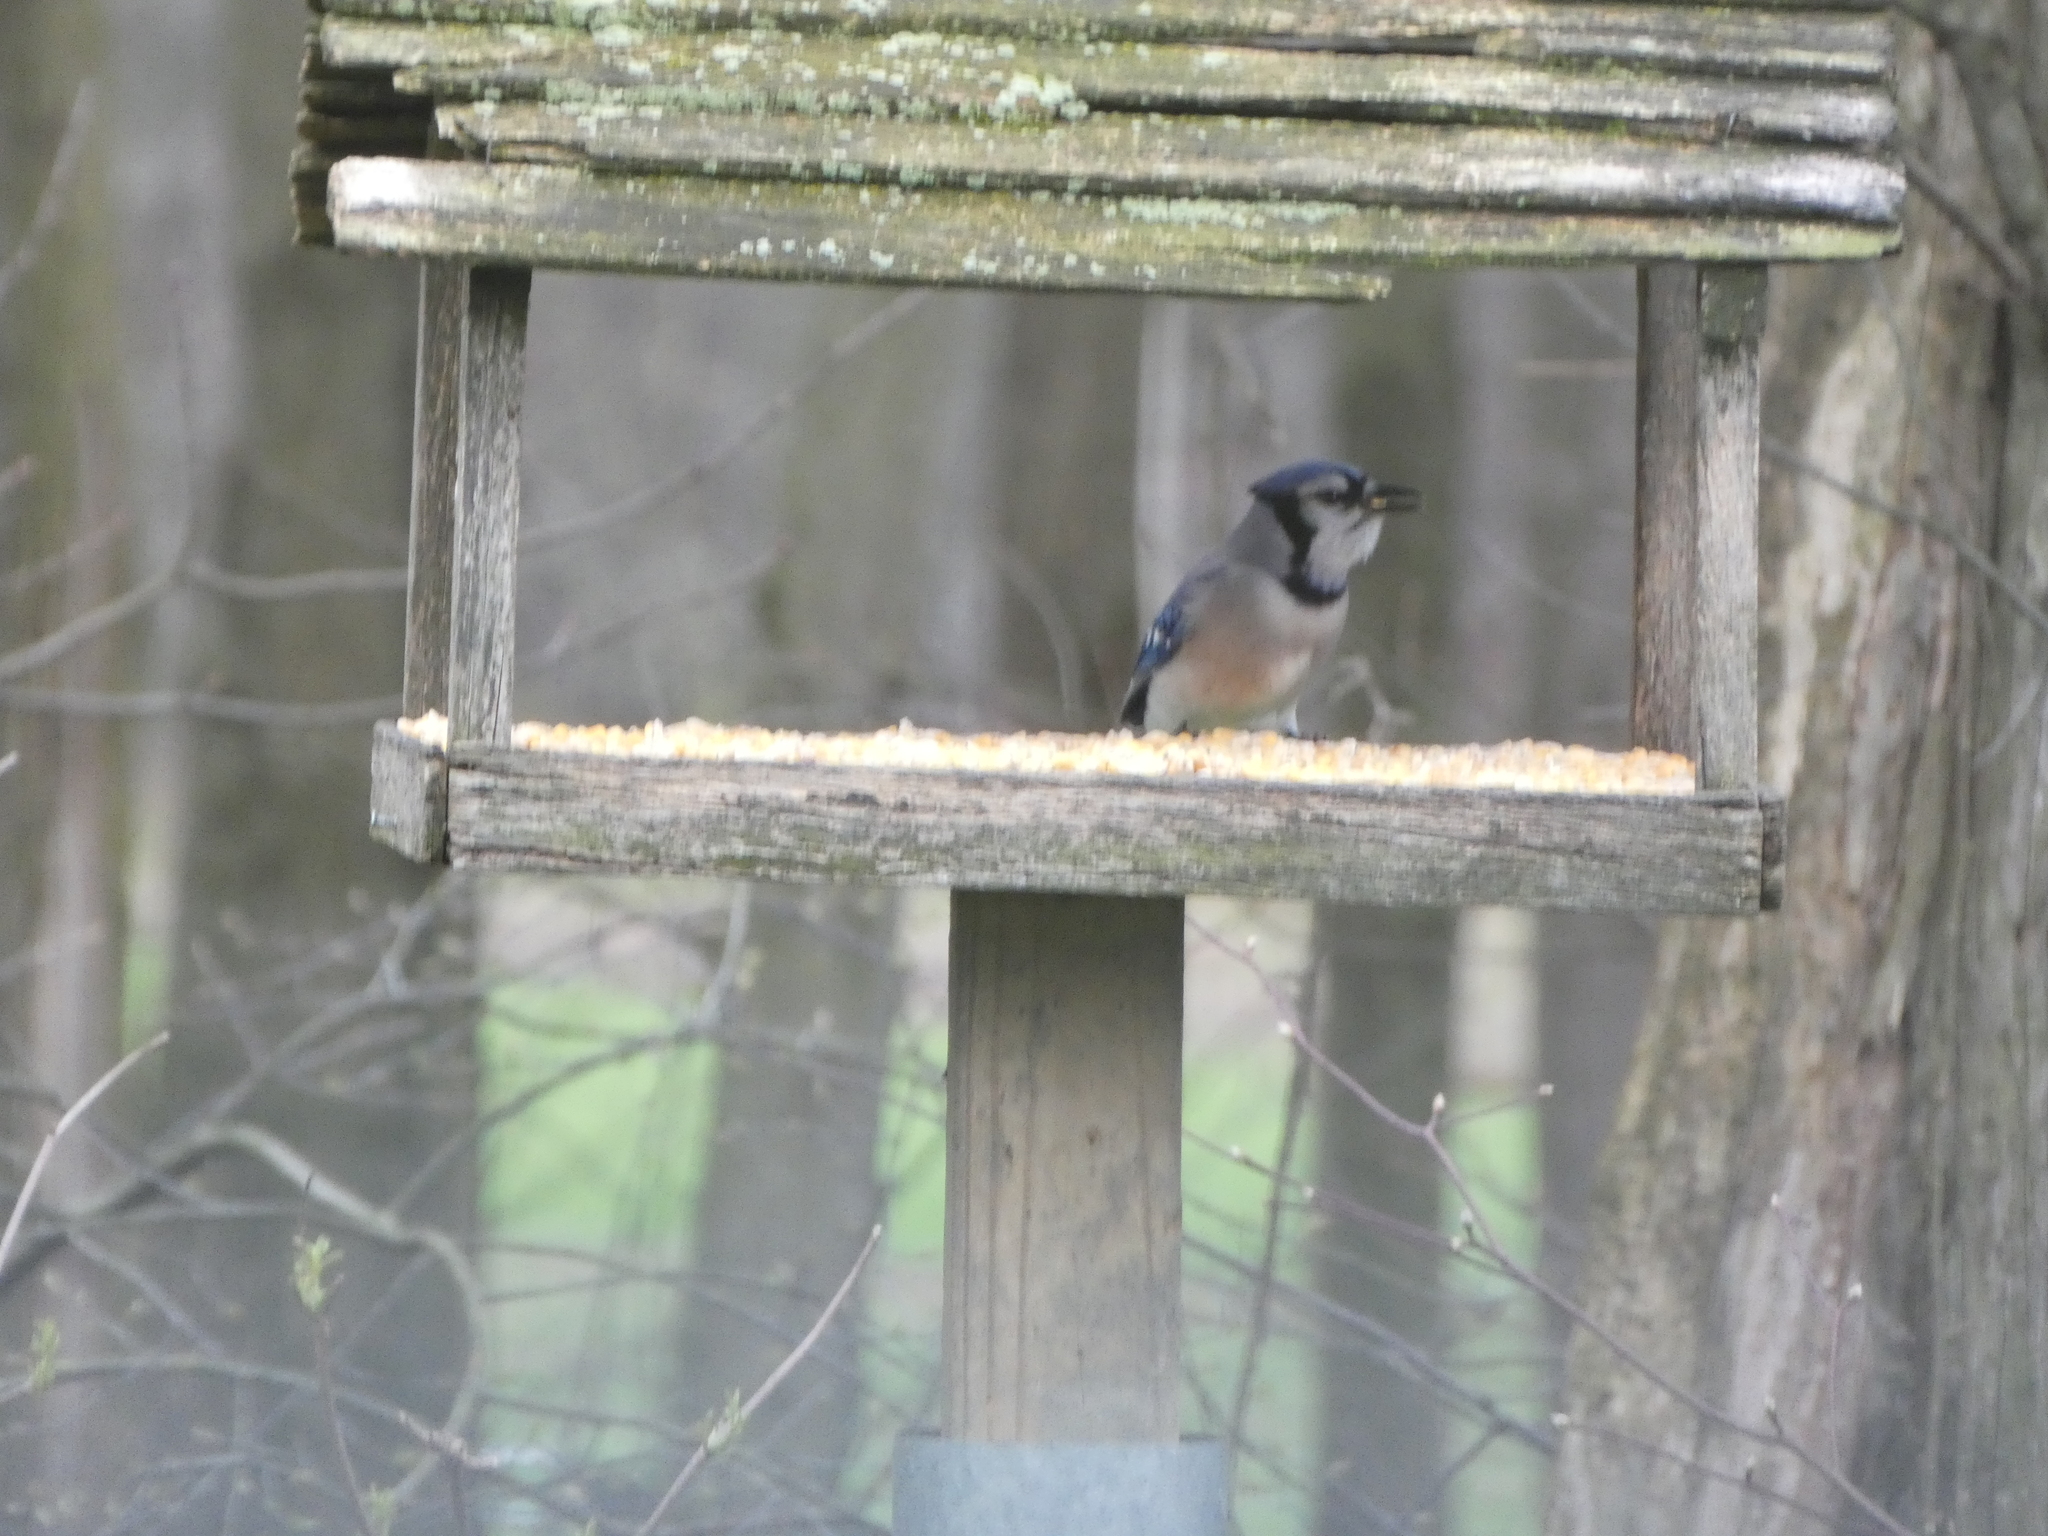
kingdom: Animalia
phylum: Chordata
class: Aves
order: Passeriformes
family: Corvidae
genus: Cyanocitta
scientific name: Cyanocitta cristata
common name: Blue jay
